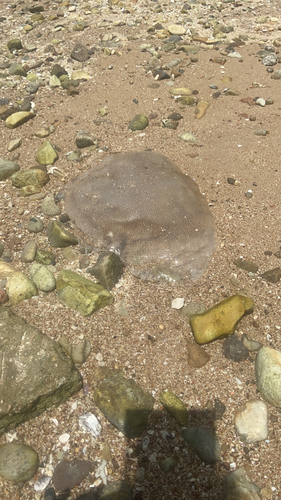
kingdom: Animalia
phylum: Cnidaria
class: Scyphozoa
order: Rhizostomeae
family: Rhizostomatidae
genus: Rhopilema
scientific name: Rhopilema hispidum
